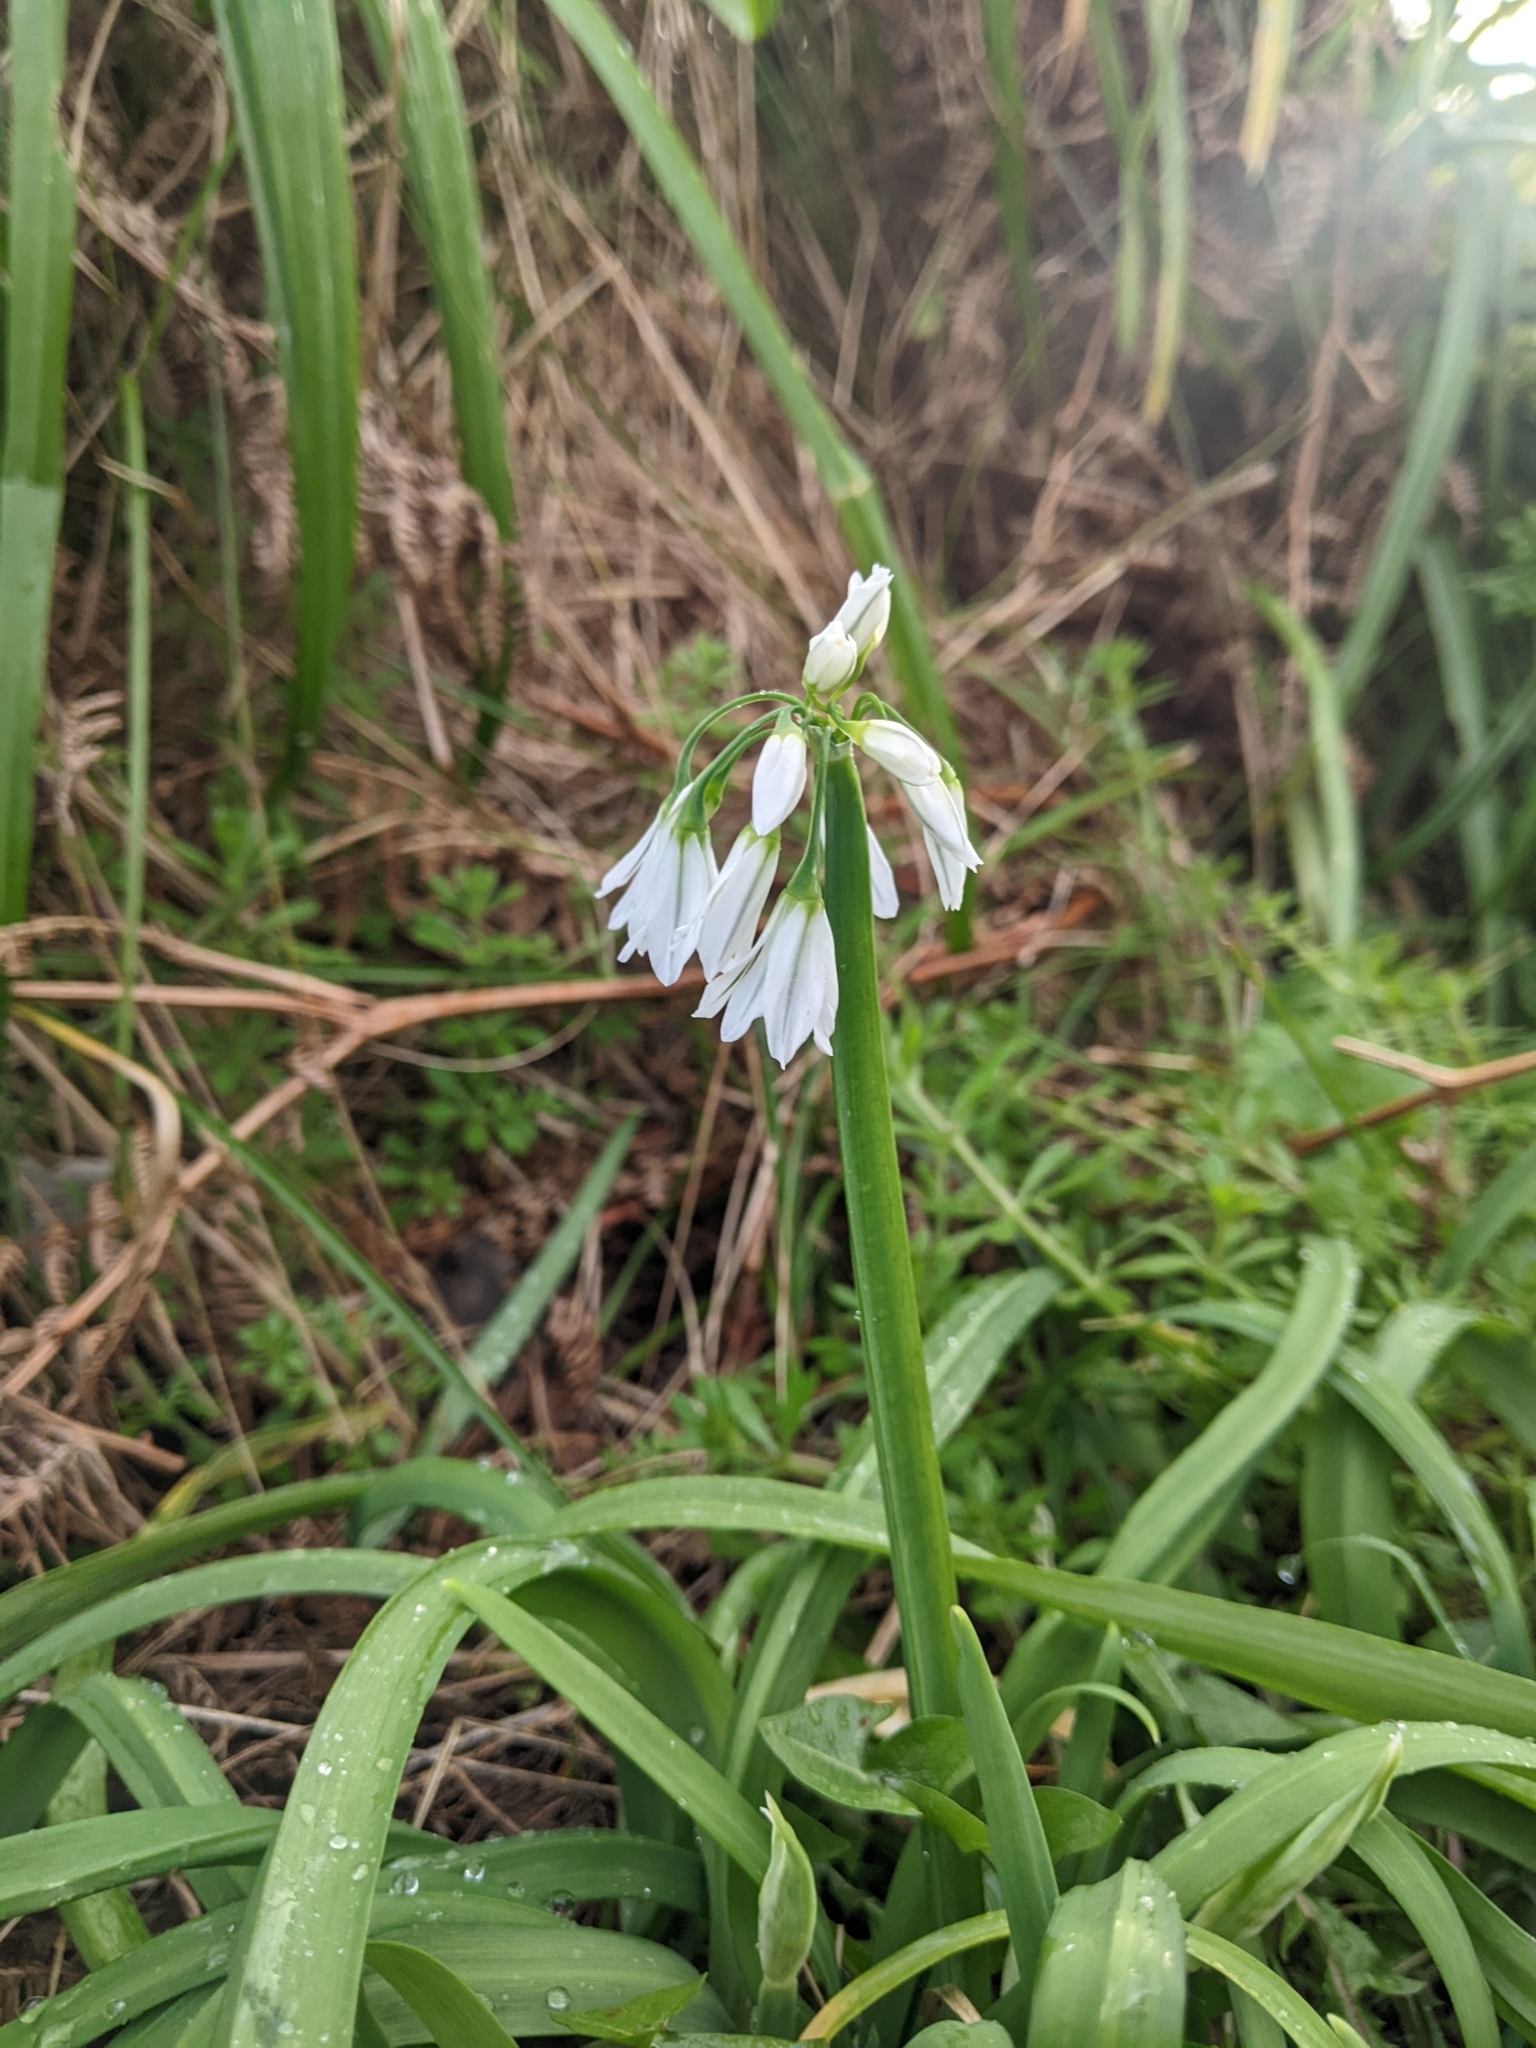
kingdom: Plantae
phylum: Tracheophyta
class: Liliopsida
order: Asparagales
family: Amaryllidaceae
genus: Allium
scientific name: Allium triquetrum
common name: Three-cornered garlic
